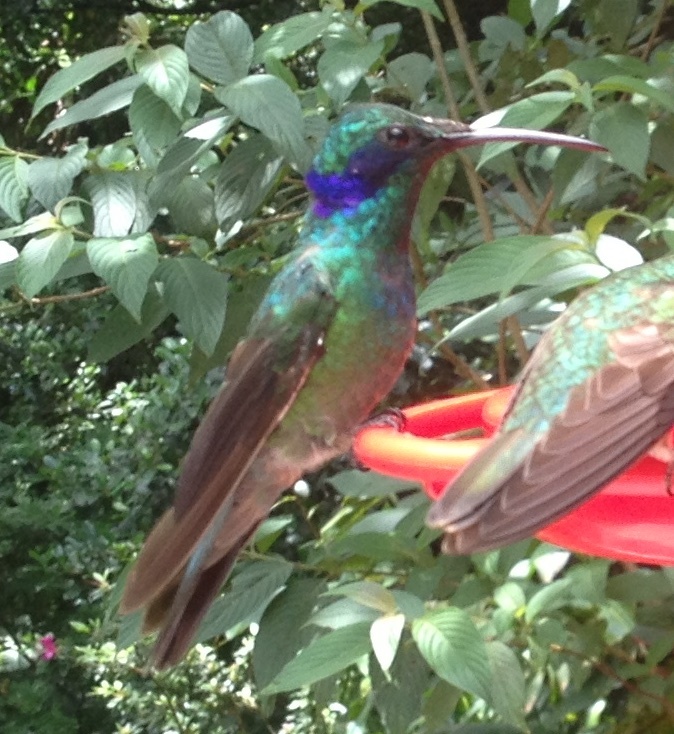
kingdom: Animalia
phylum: Chordata
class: Aves
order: Apodiformes
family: Trochilidae
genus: Colibri
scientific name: Colibri cyanotus
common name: Lesser violetear
